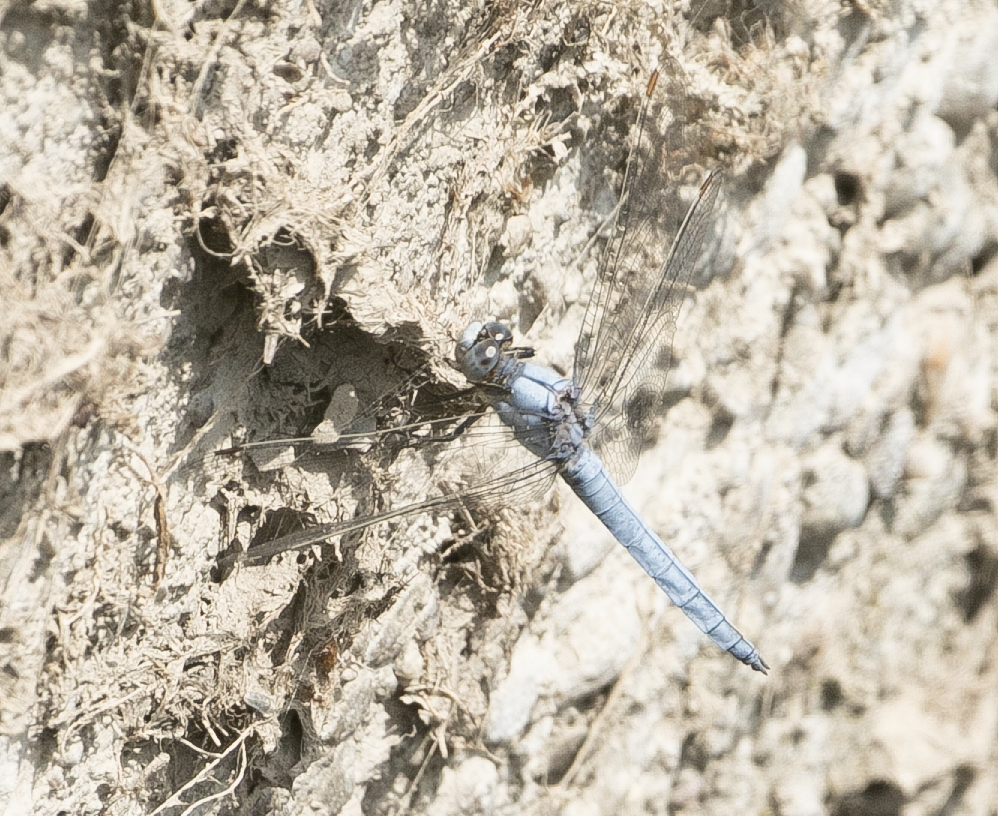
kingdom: Animalia
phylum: Arthropoda
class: Insecta
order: Odonata
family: Libellulidae
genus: Orthetrum
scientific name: Orthetrum brunneum
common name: Southern skimmer
